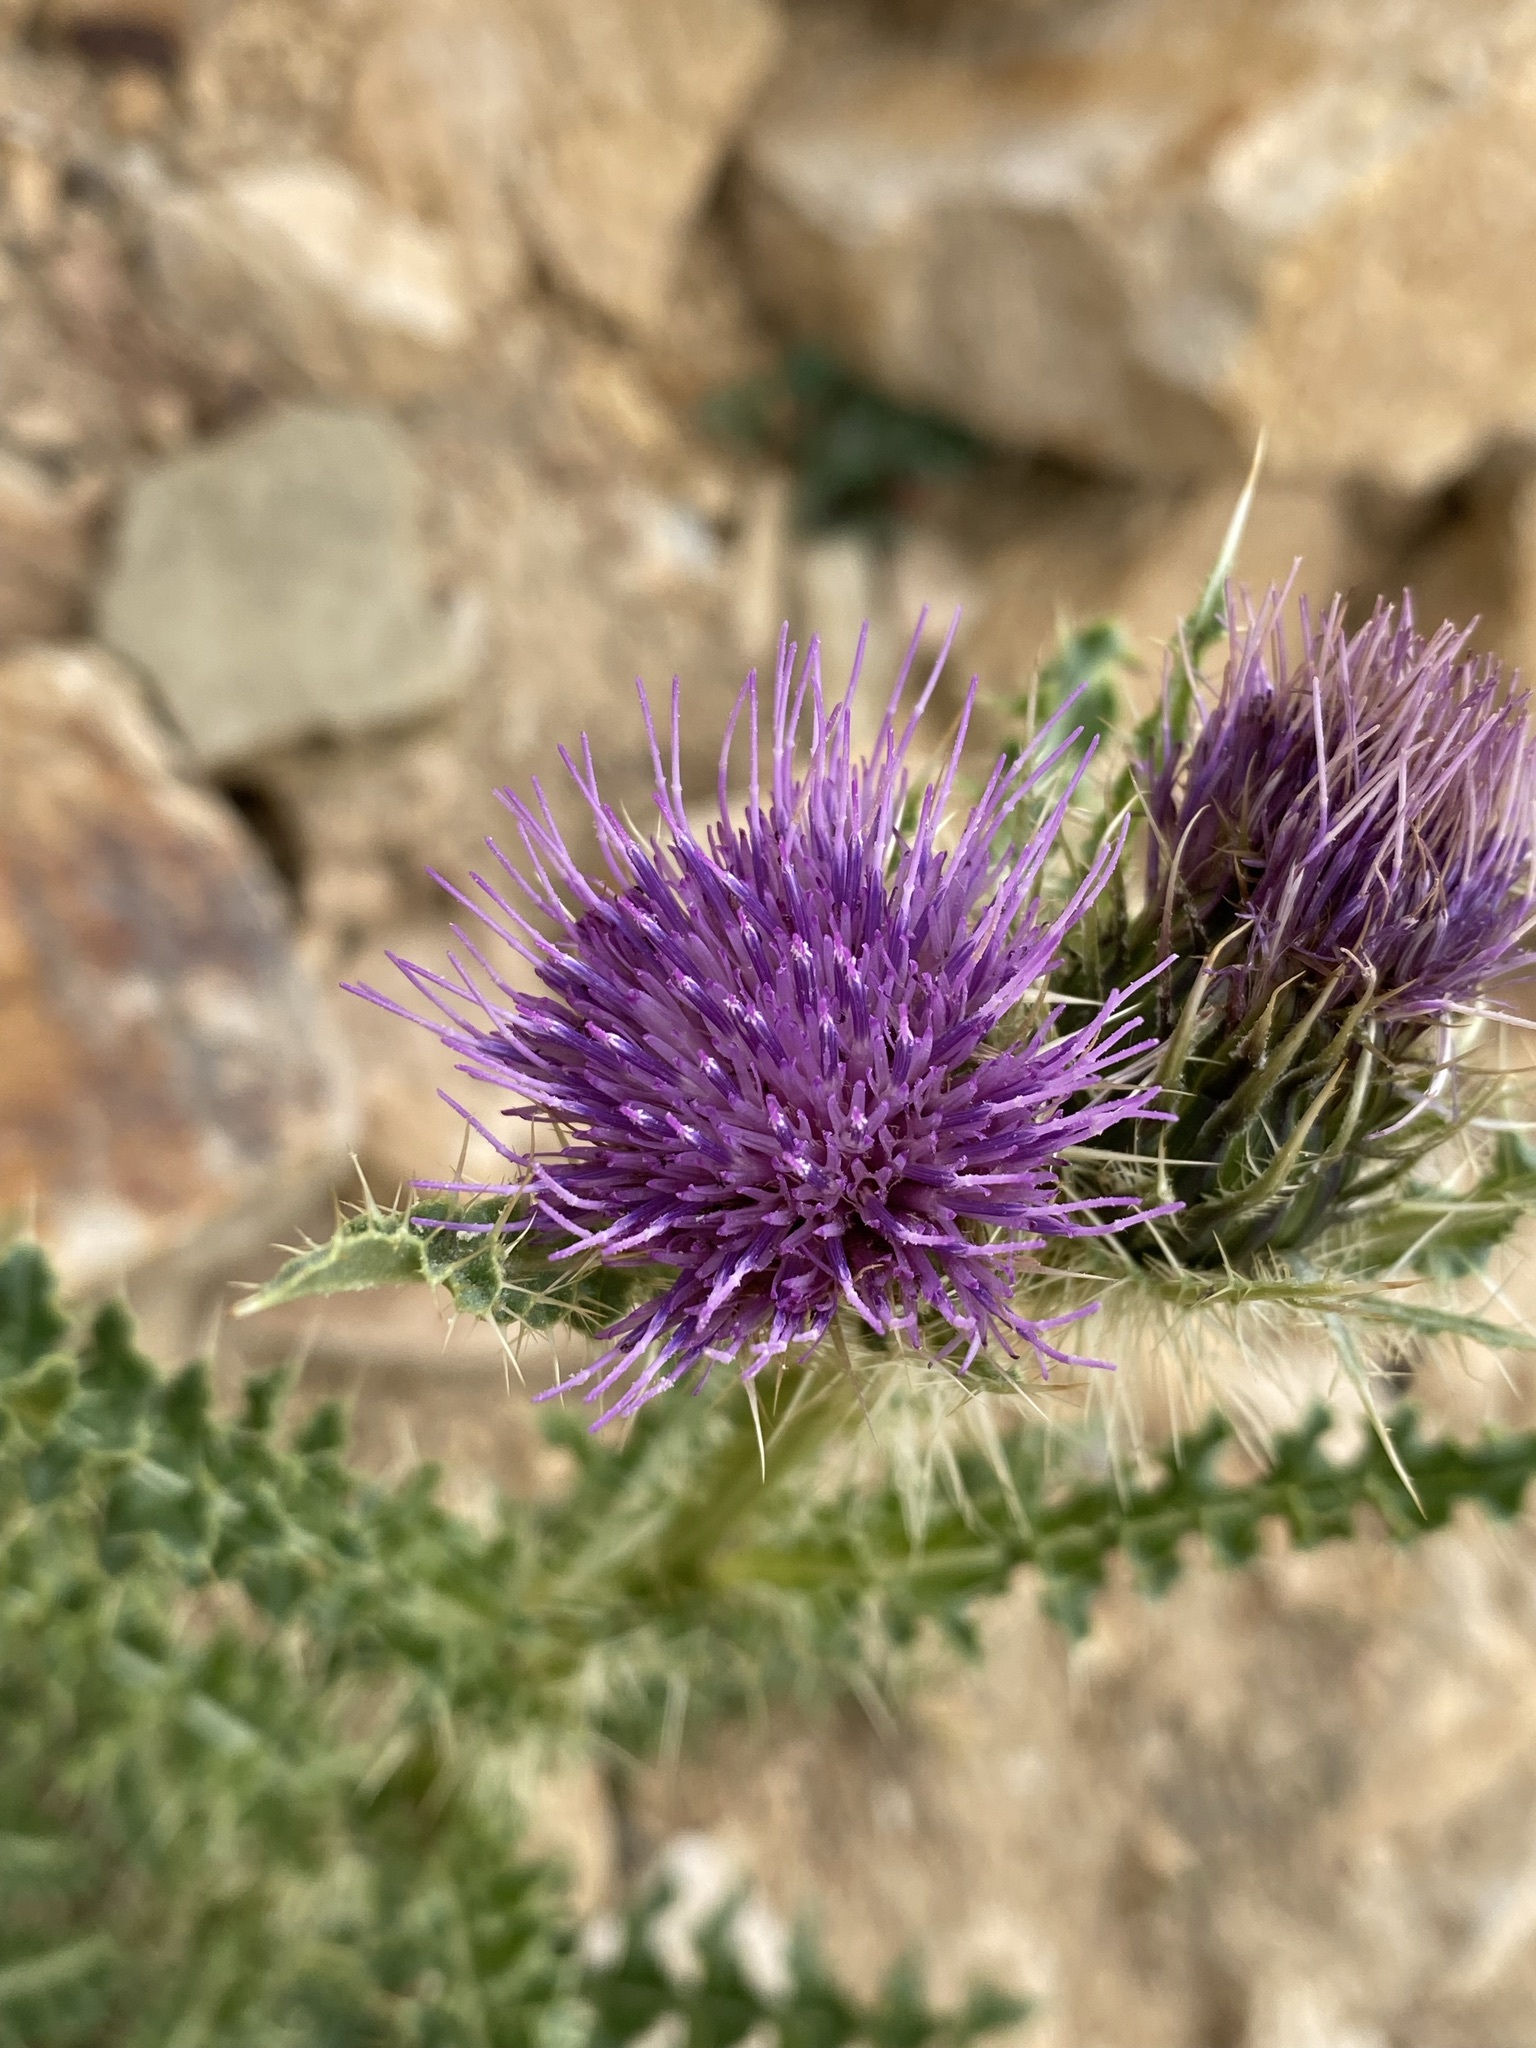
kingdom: Plantae
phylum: Tracheophyta
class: Magnoliopsida
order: Asterales
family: Asteraceae
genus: Cirsium
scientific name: Cirsium eatonii
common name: Eaton's thistle
